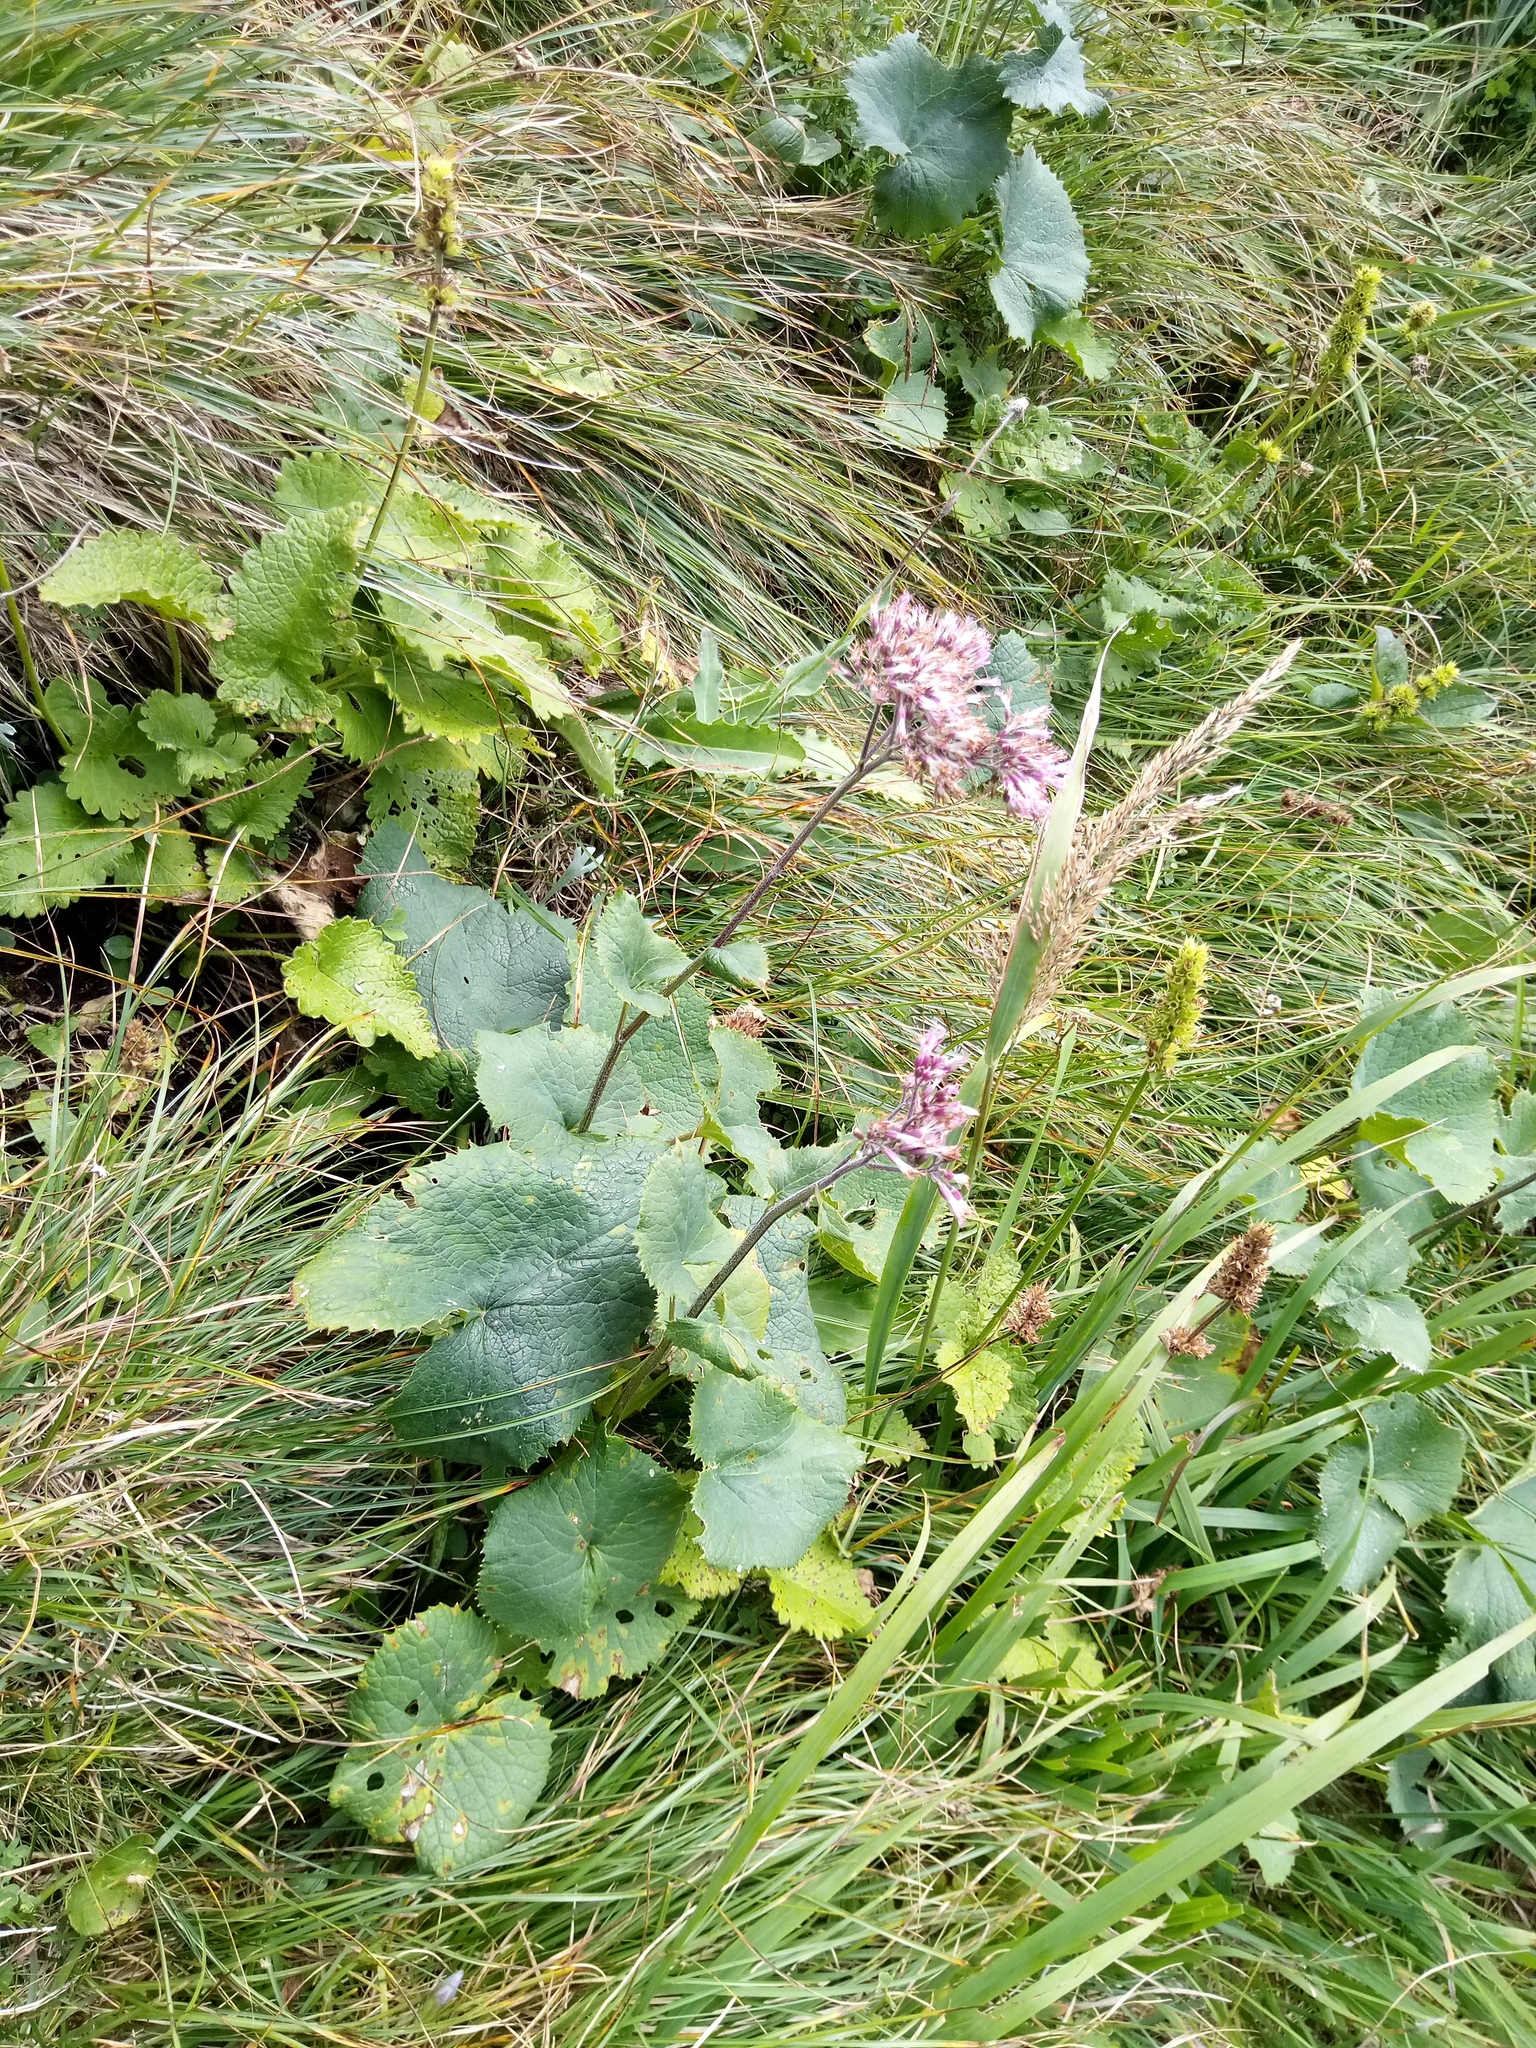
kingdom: Plantae
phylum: Tracheophyta
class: Magnoliopsida
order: Asterales
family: Asteraceae
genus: Adenostyles
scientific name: Adenostyles alpina
